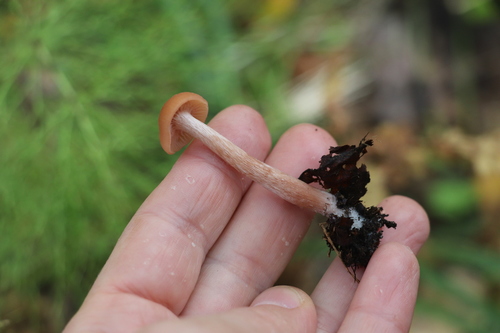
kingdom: Fungi
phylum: Basidiomycota
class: Agaricomycetes
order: Agaricales
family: Hydnangiaceae
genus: Laccaria
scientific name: Laccaria laccata
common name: Deceiver
